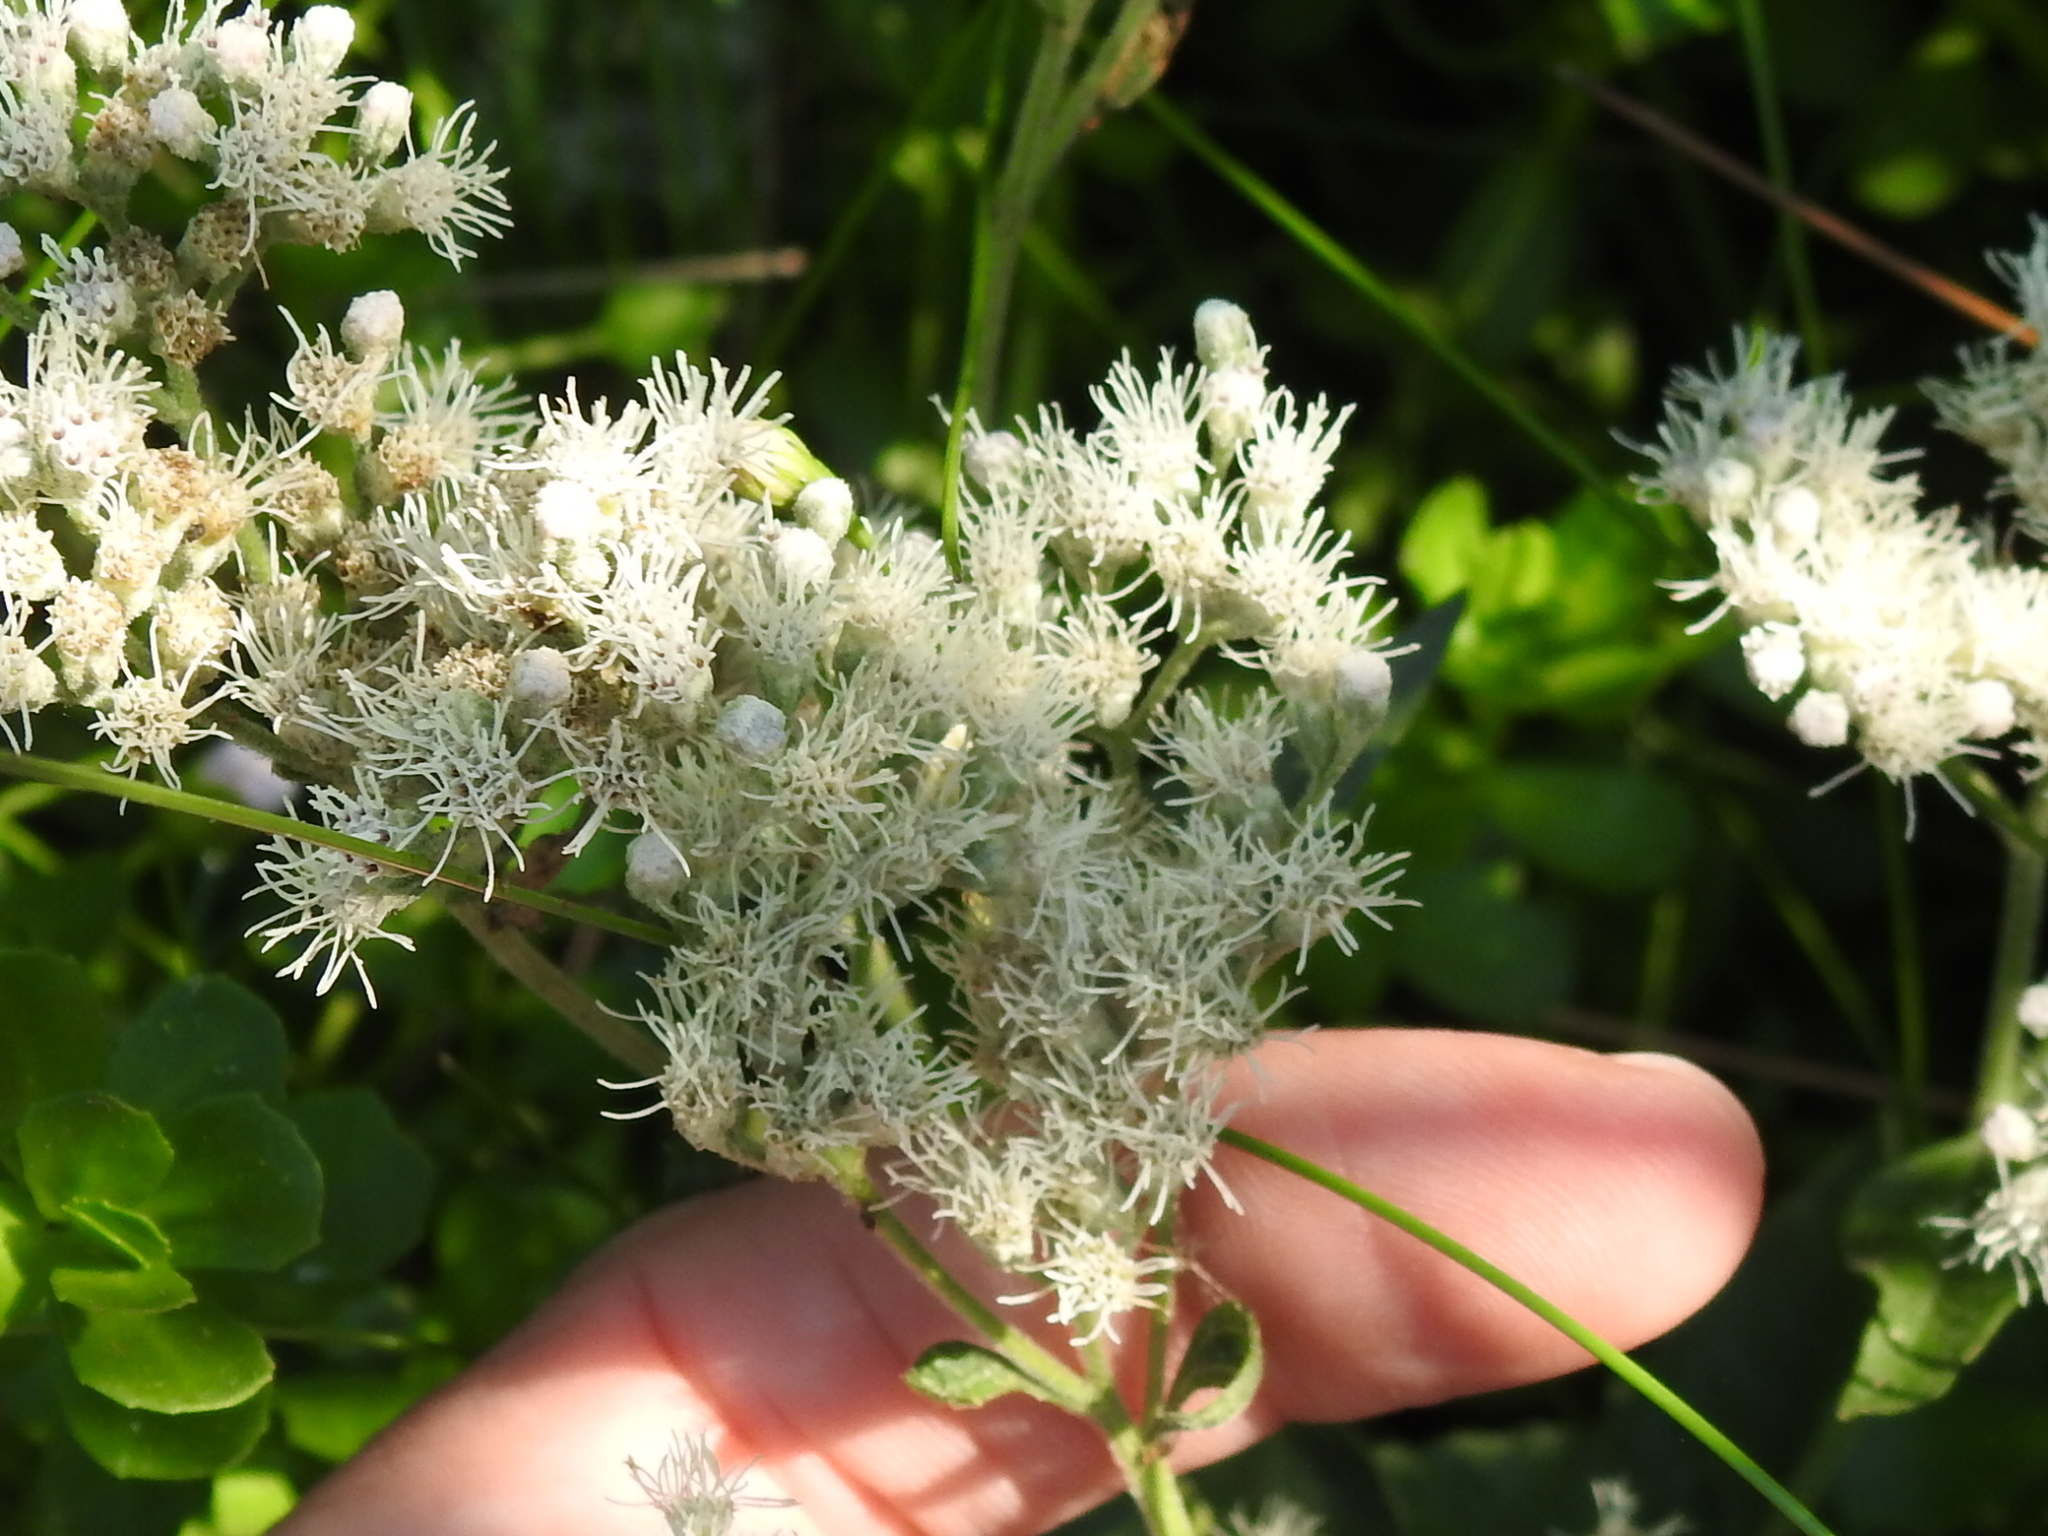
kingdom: Plantae
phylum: Tracheophyta
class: Magnoliopsida
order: Asterales
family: Asteraceae
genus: Eupatorium
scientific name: Eupatorium serotinum
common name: Late boneset
